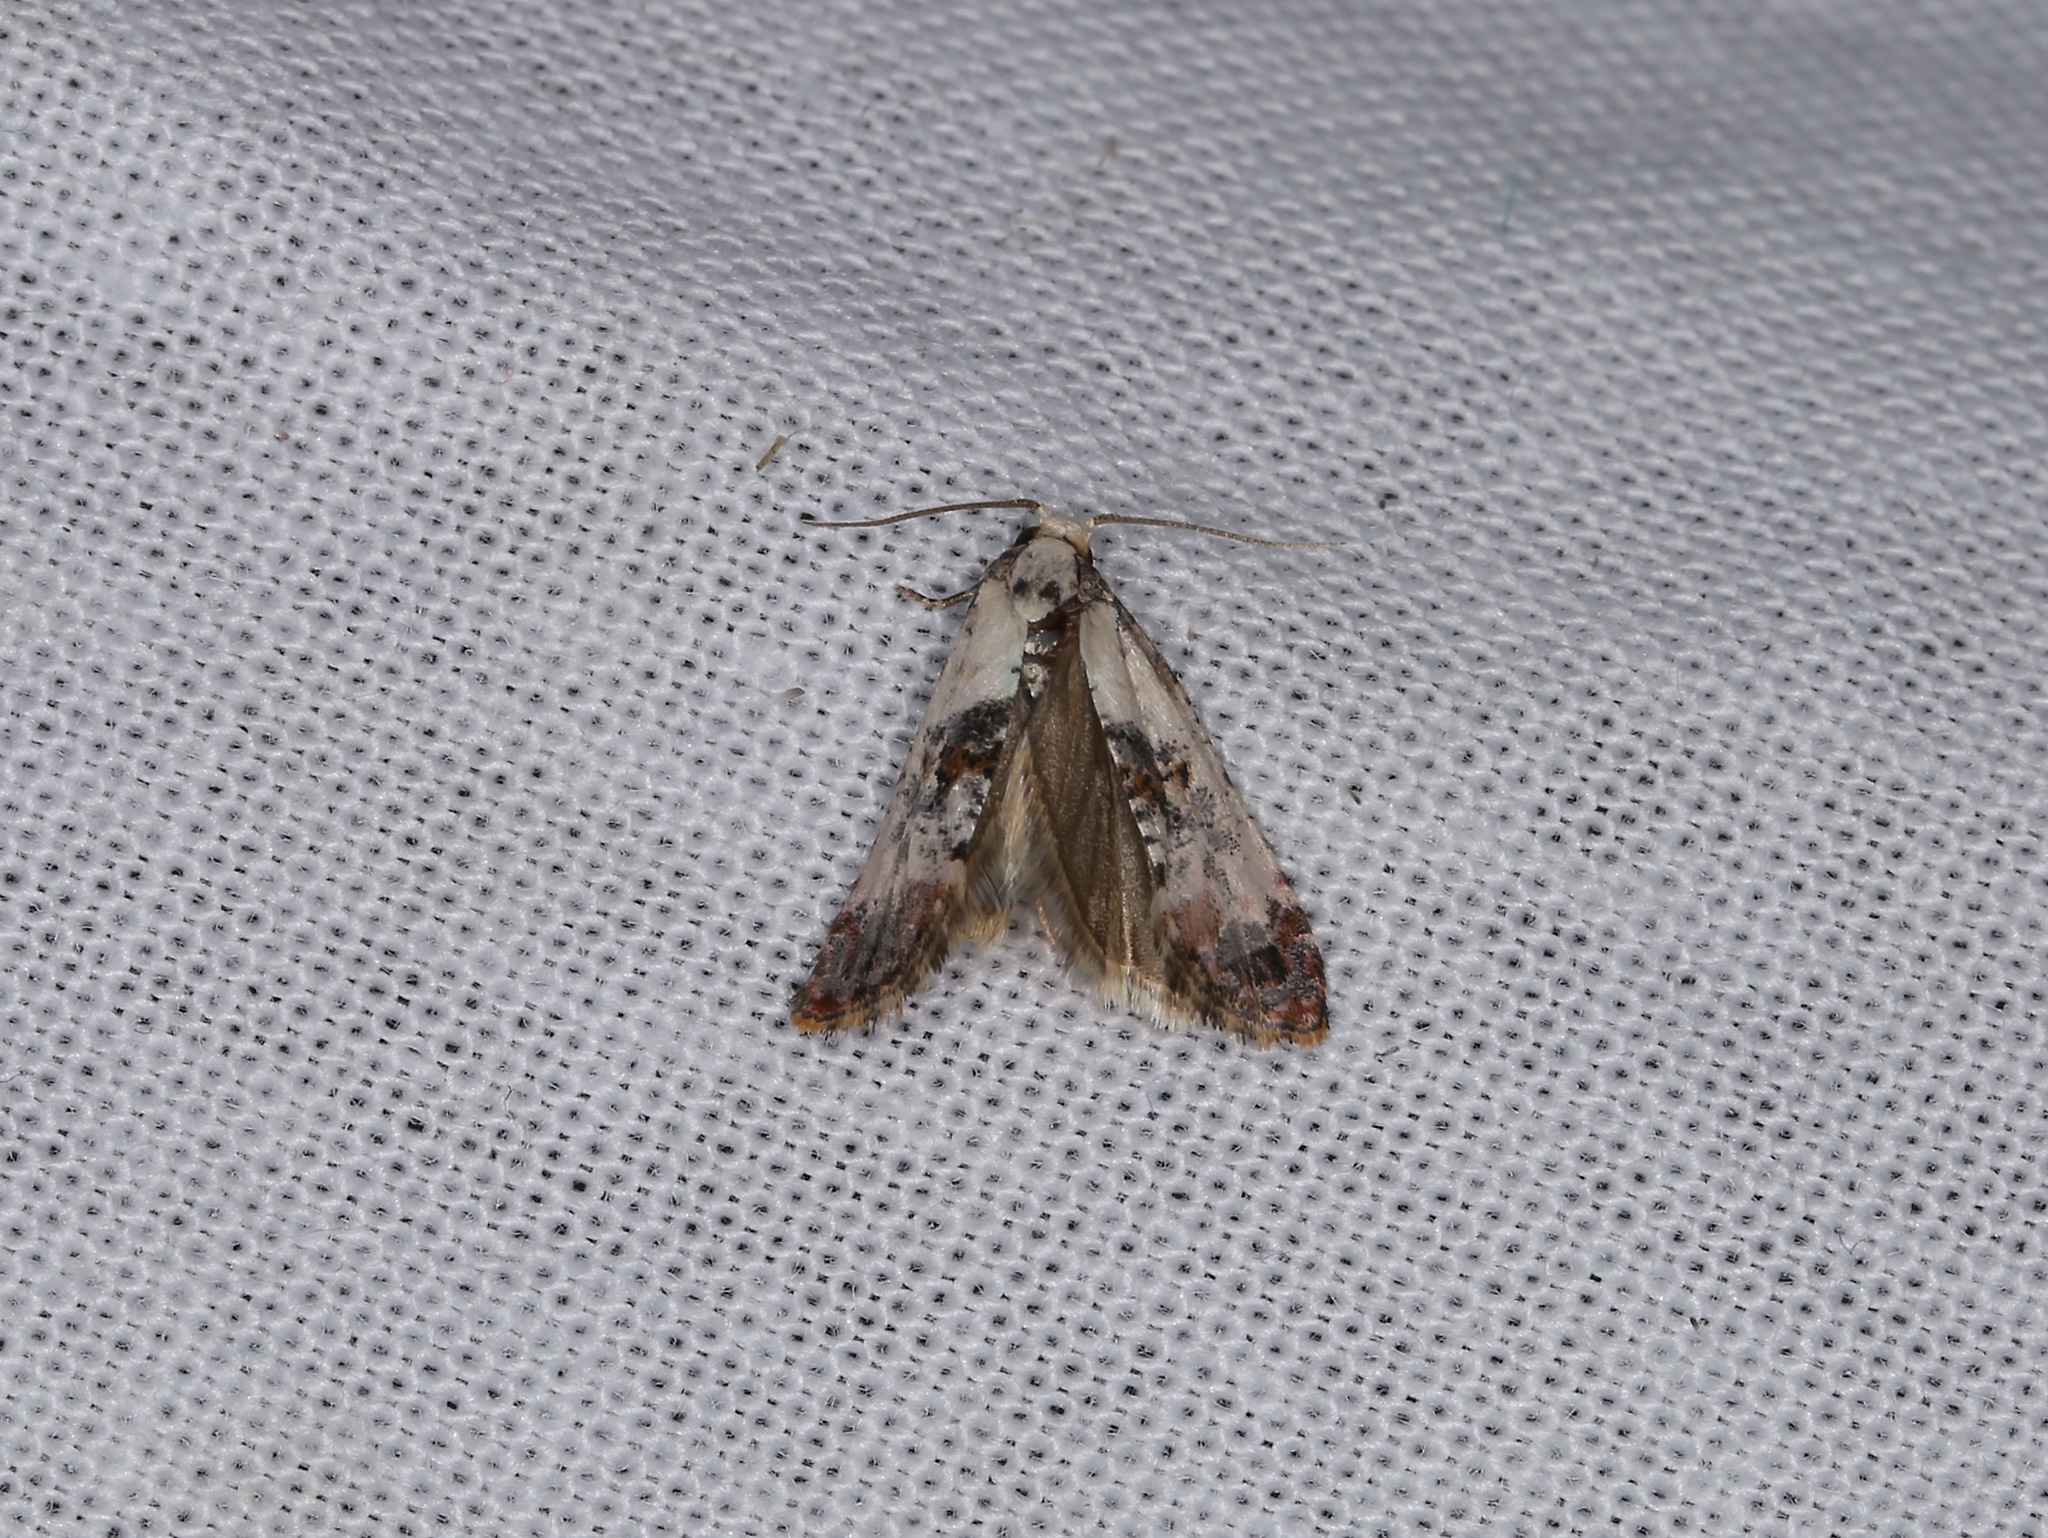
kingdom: Animalia
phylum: Arthropoda
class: Insecta
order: Lepidoptera
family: Tortricidae
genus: Cochylis
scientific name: Cochylis hybridella
